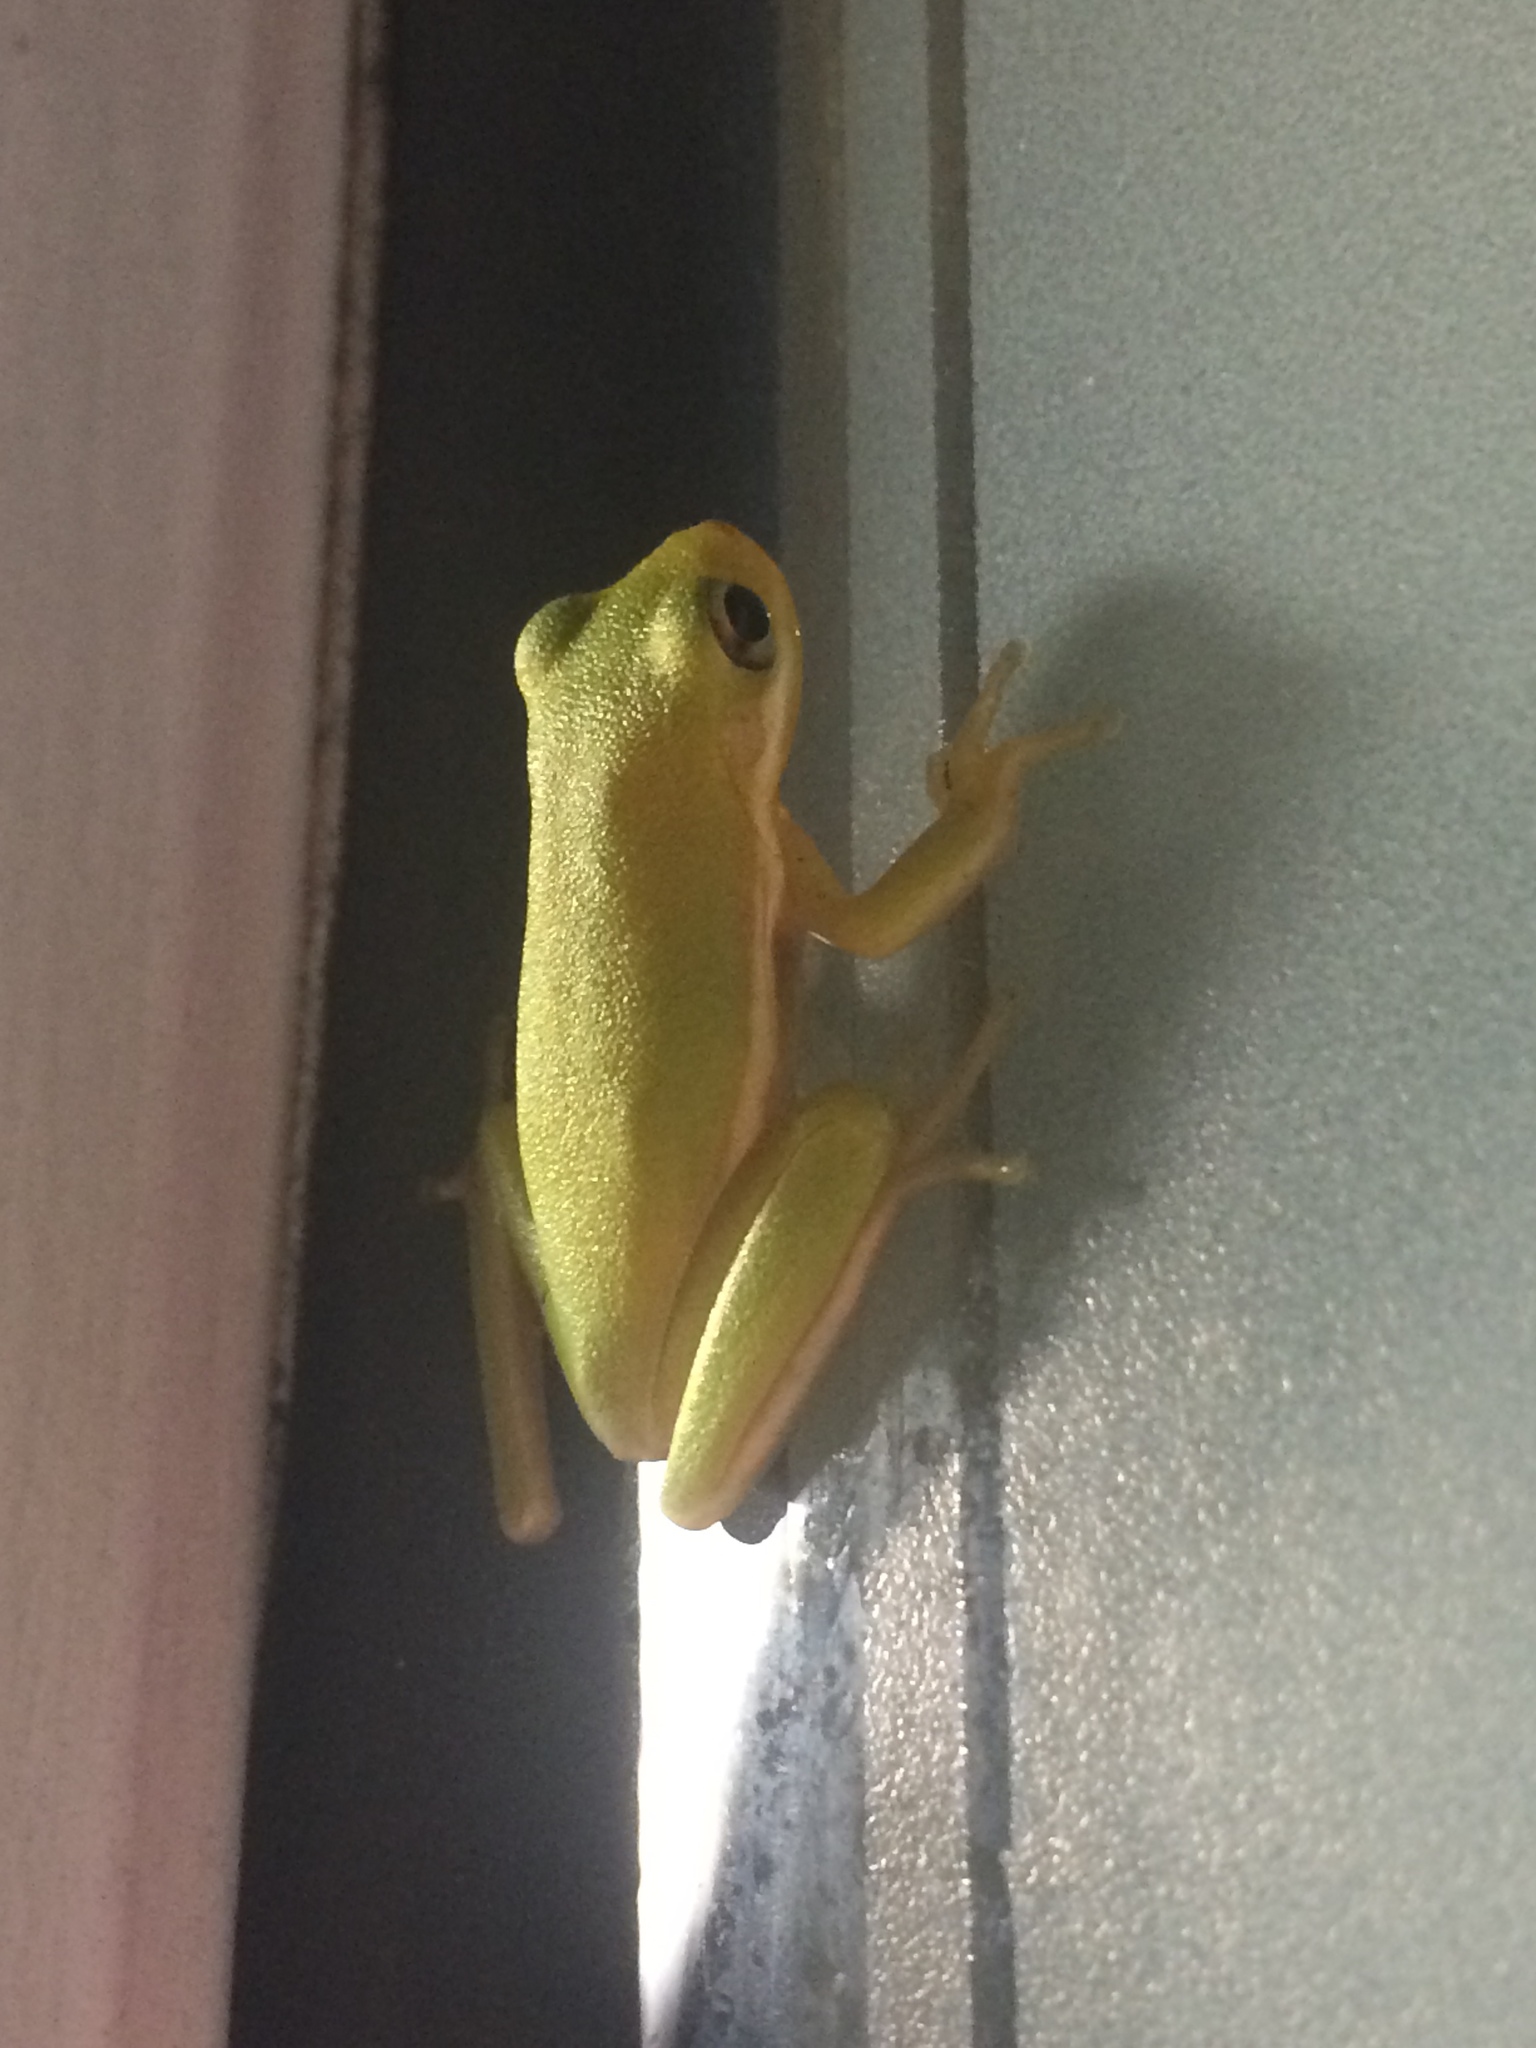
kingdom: Animalia
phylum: Chordata
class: Amphibia
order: Anura
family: Hylidae
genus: Dryophytes
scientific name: Dryophytes cinereus
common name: Green treefrog
